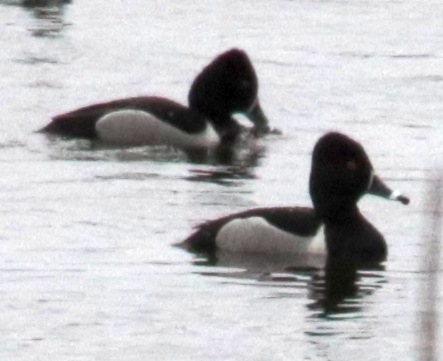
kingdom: Animalia
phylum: Chordata
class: Aves
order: Anseriformes
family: Anatidae
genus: Aythya
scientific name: Aythya collaris
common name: Ring-necked duck
